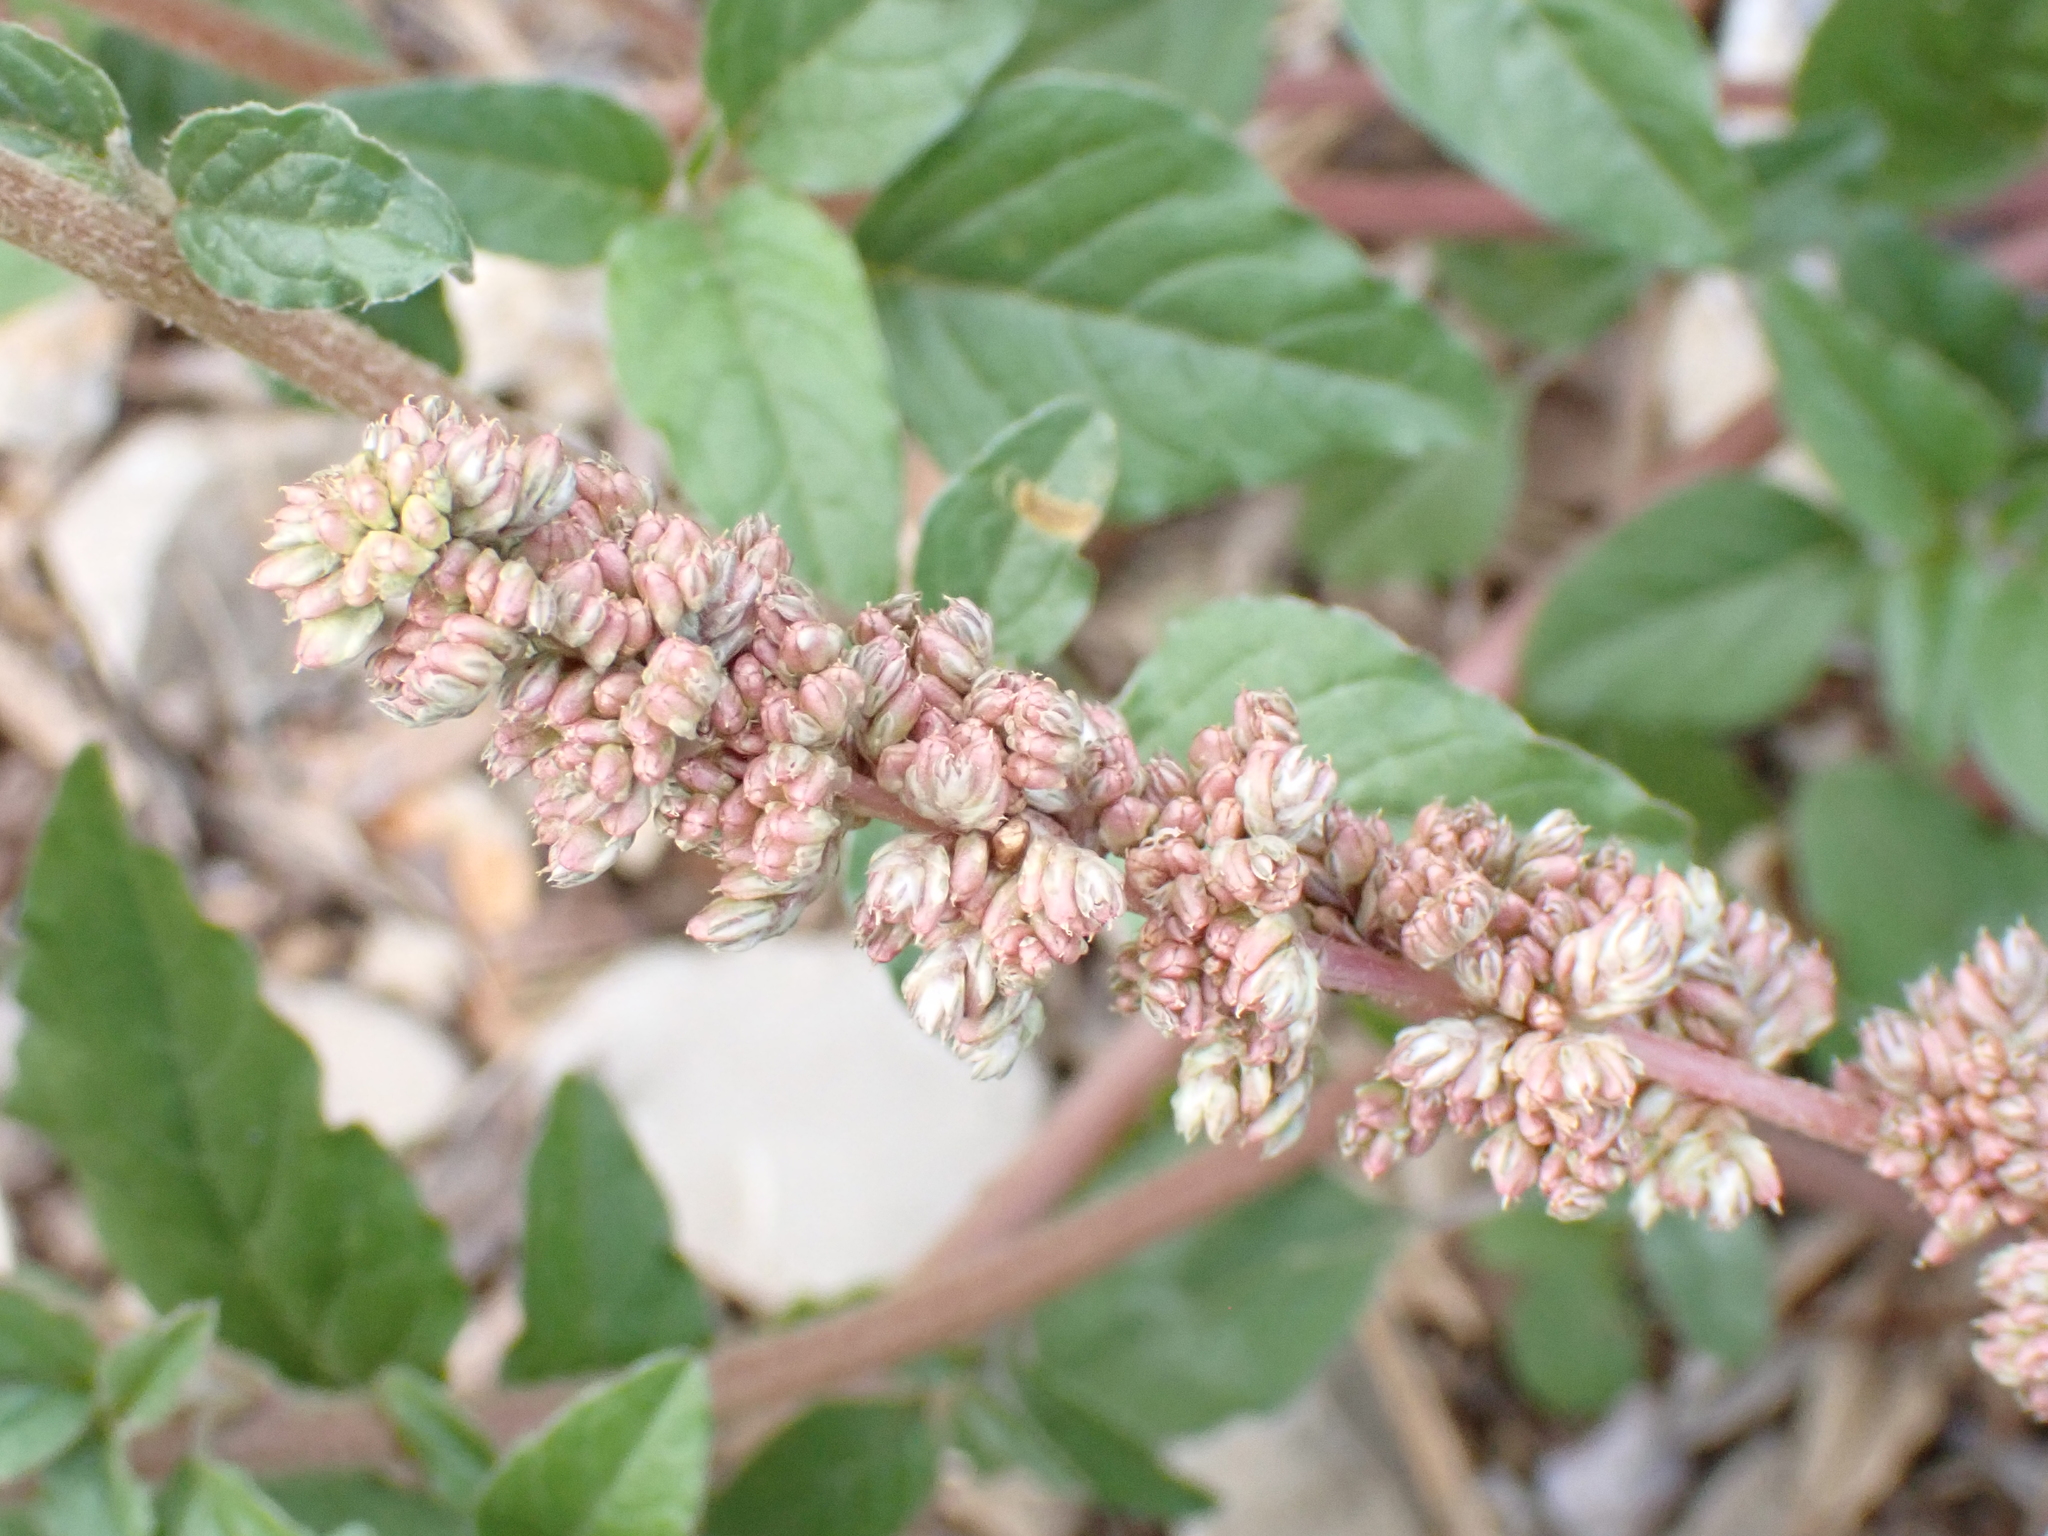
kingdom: Plantae
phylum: Tracheophyta
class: Magnoliopsida
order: Caryophyllales
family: Amaranthaceae
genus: Amaranthus
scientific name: Amaranthus deflexus
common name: Perennial pigweed
